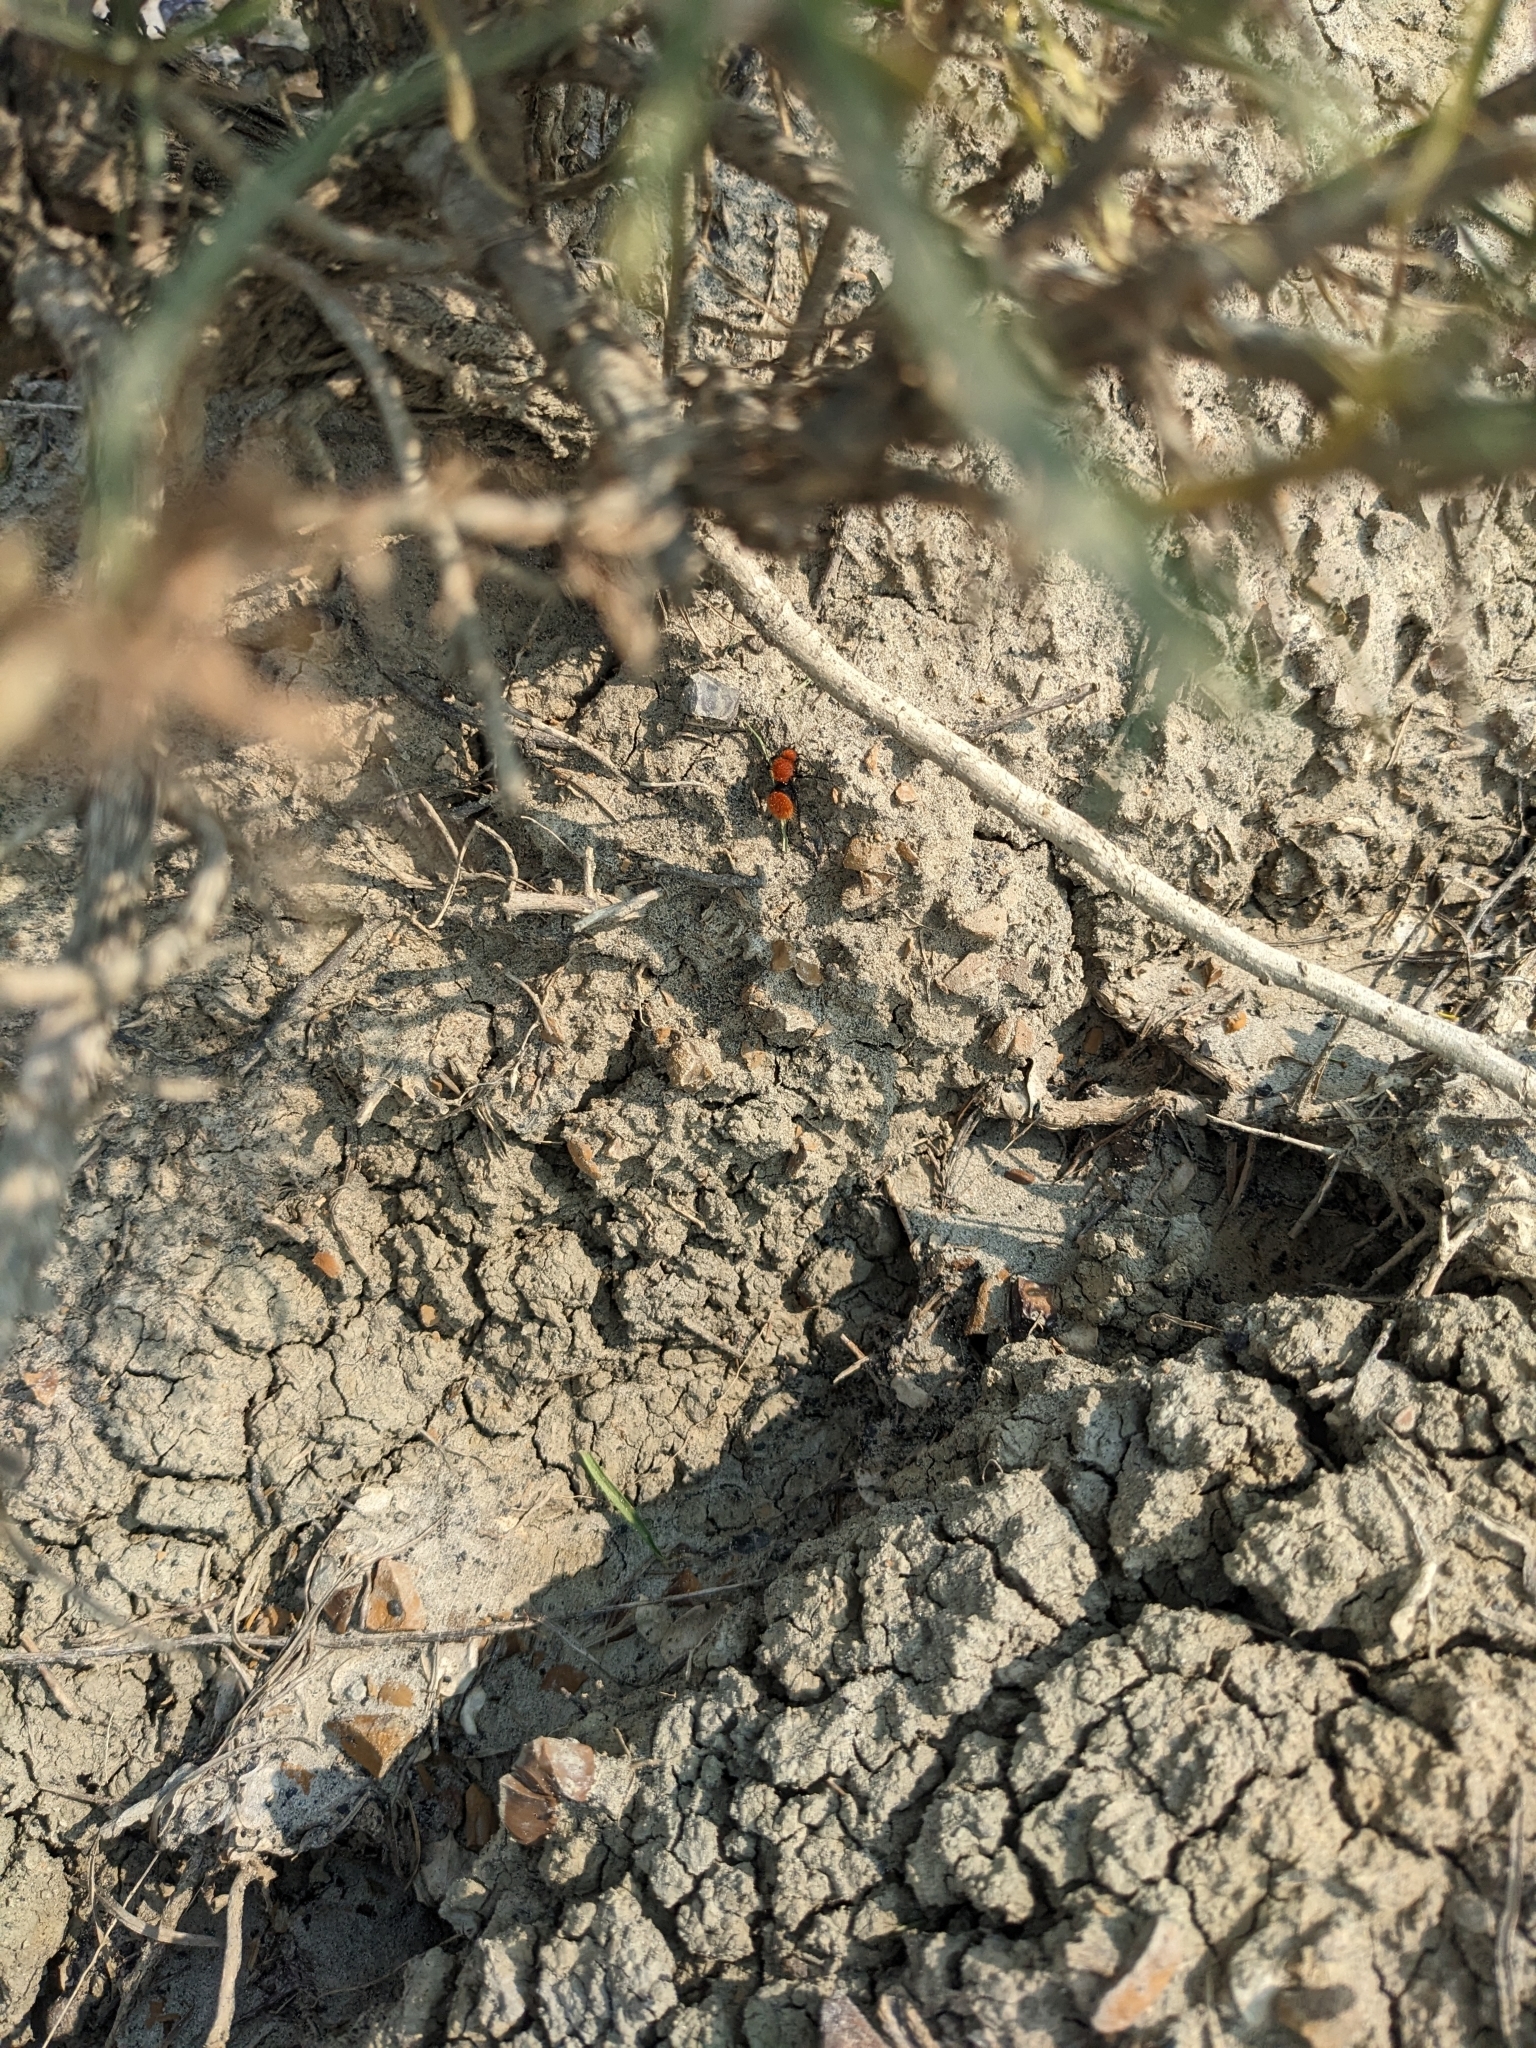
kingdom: Animalia
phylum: Arthropoda
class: Insecta
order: Hymenoptera
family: Mutillidae
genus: Dasymutilla
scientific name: Dasymutilla vestita
